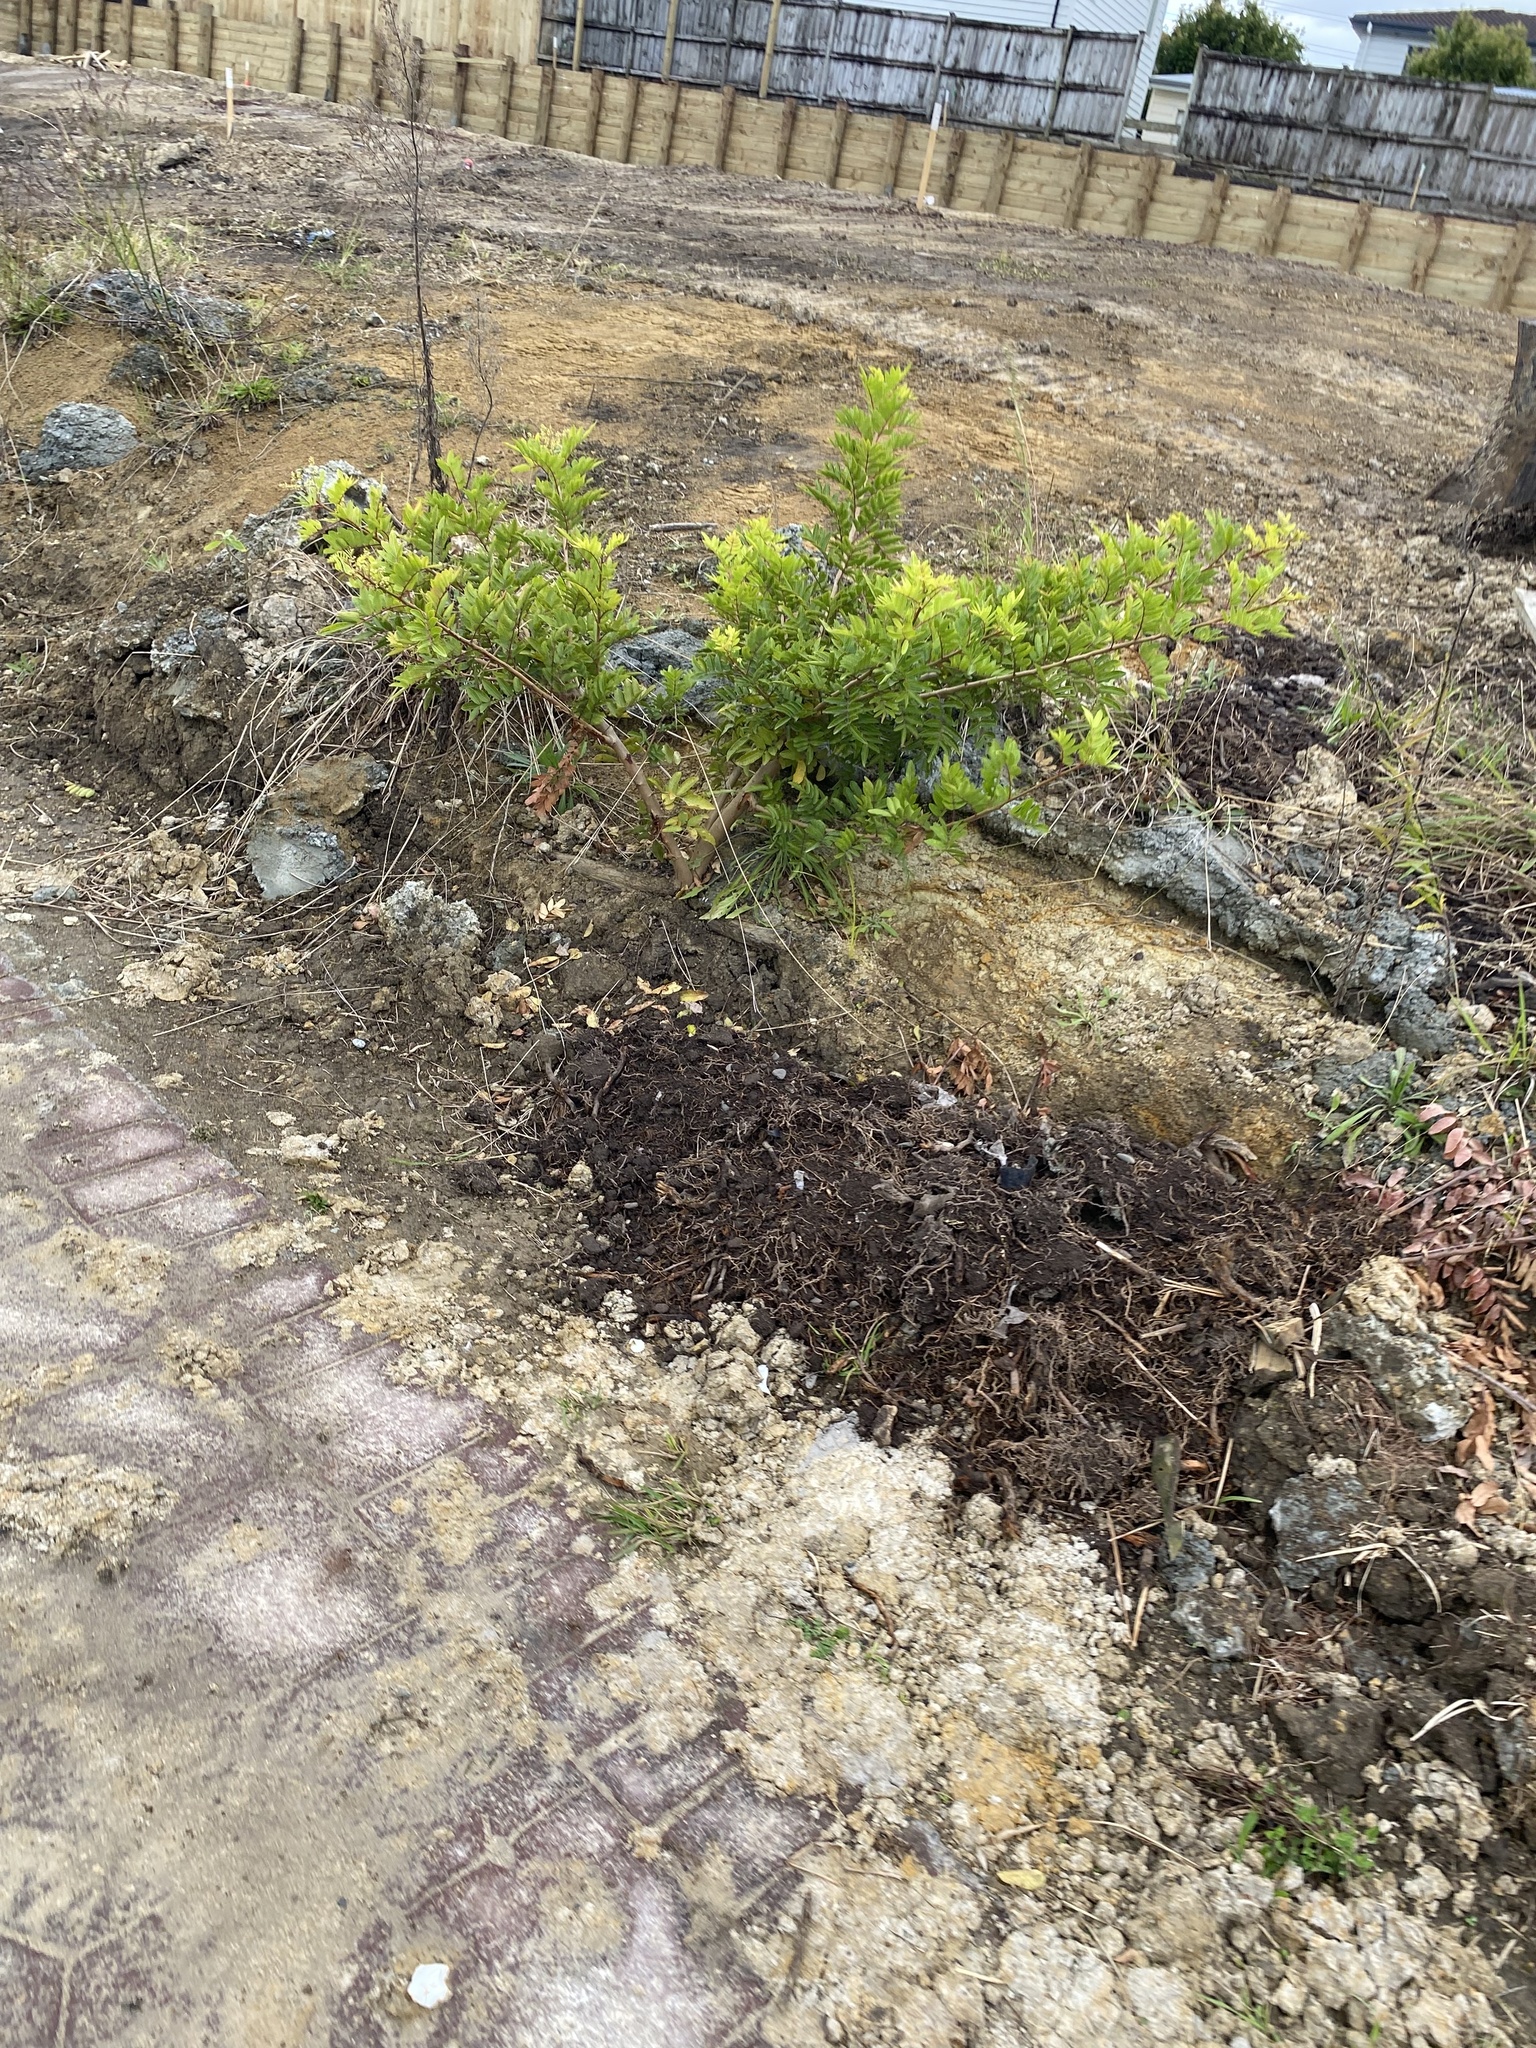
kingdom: Plantae
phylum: Tracheophyta
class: Magnoliopsida
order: Sapindales
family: Anacardiaceae
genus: Schinus
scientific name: Schinus terebinthifolia
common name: Brazilian peppertree
